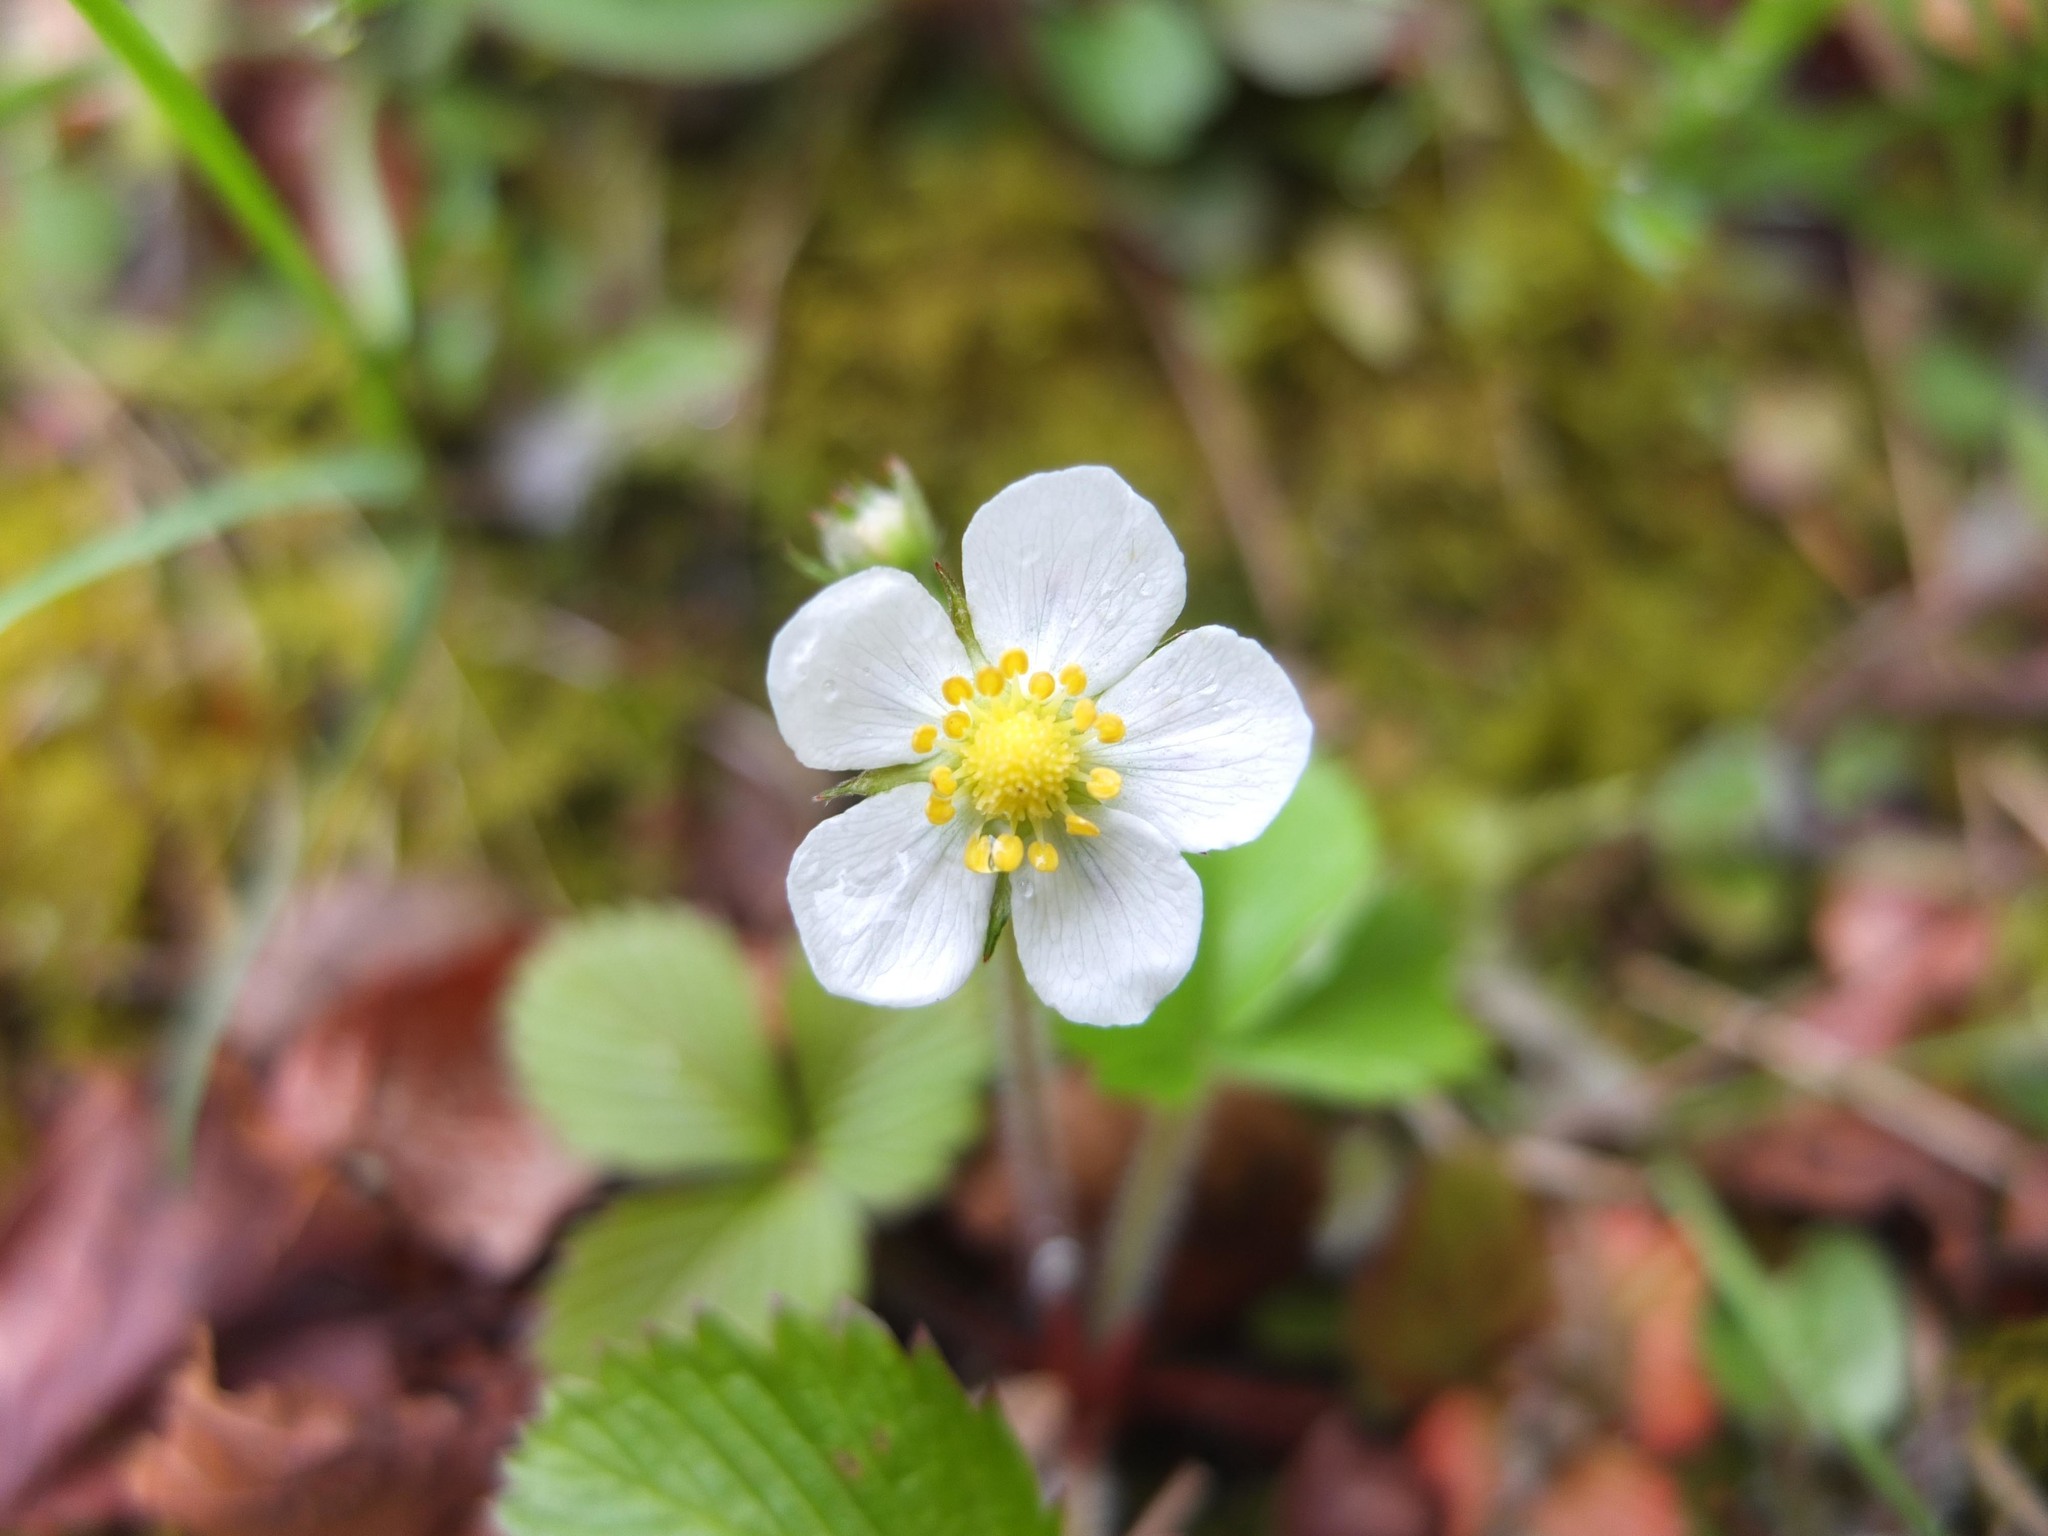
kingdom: Plantae
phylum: Tracheophyta
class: Magnoliopsida
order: Rosales
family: Rosaceae
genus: Fragaria
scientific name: Fragaria vesca
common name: Wild strawberry
